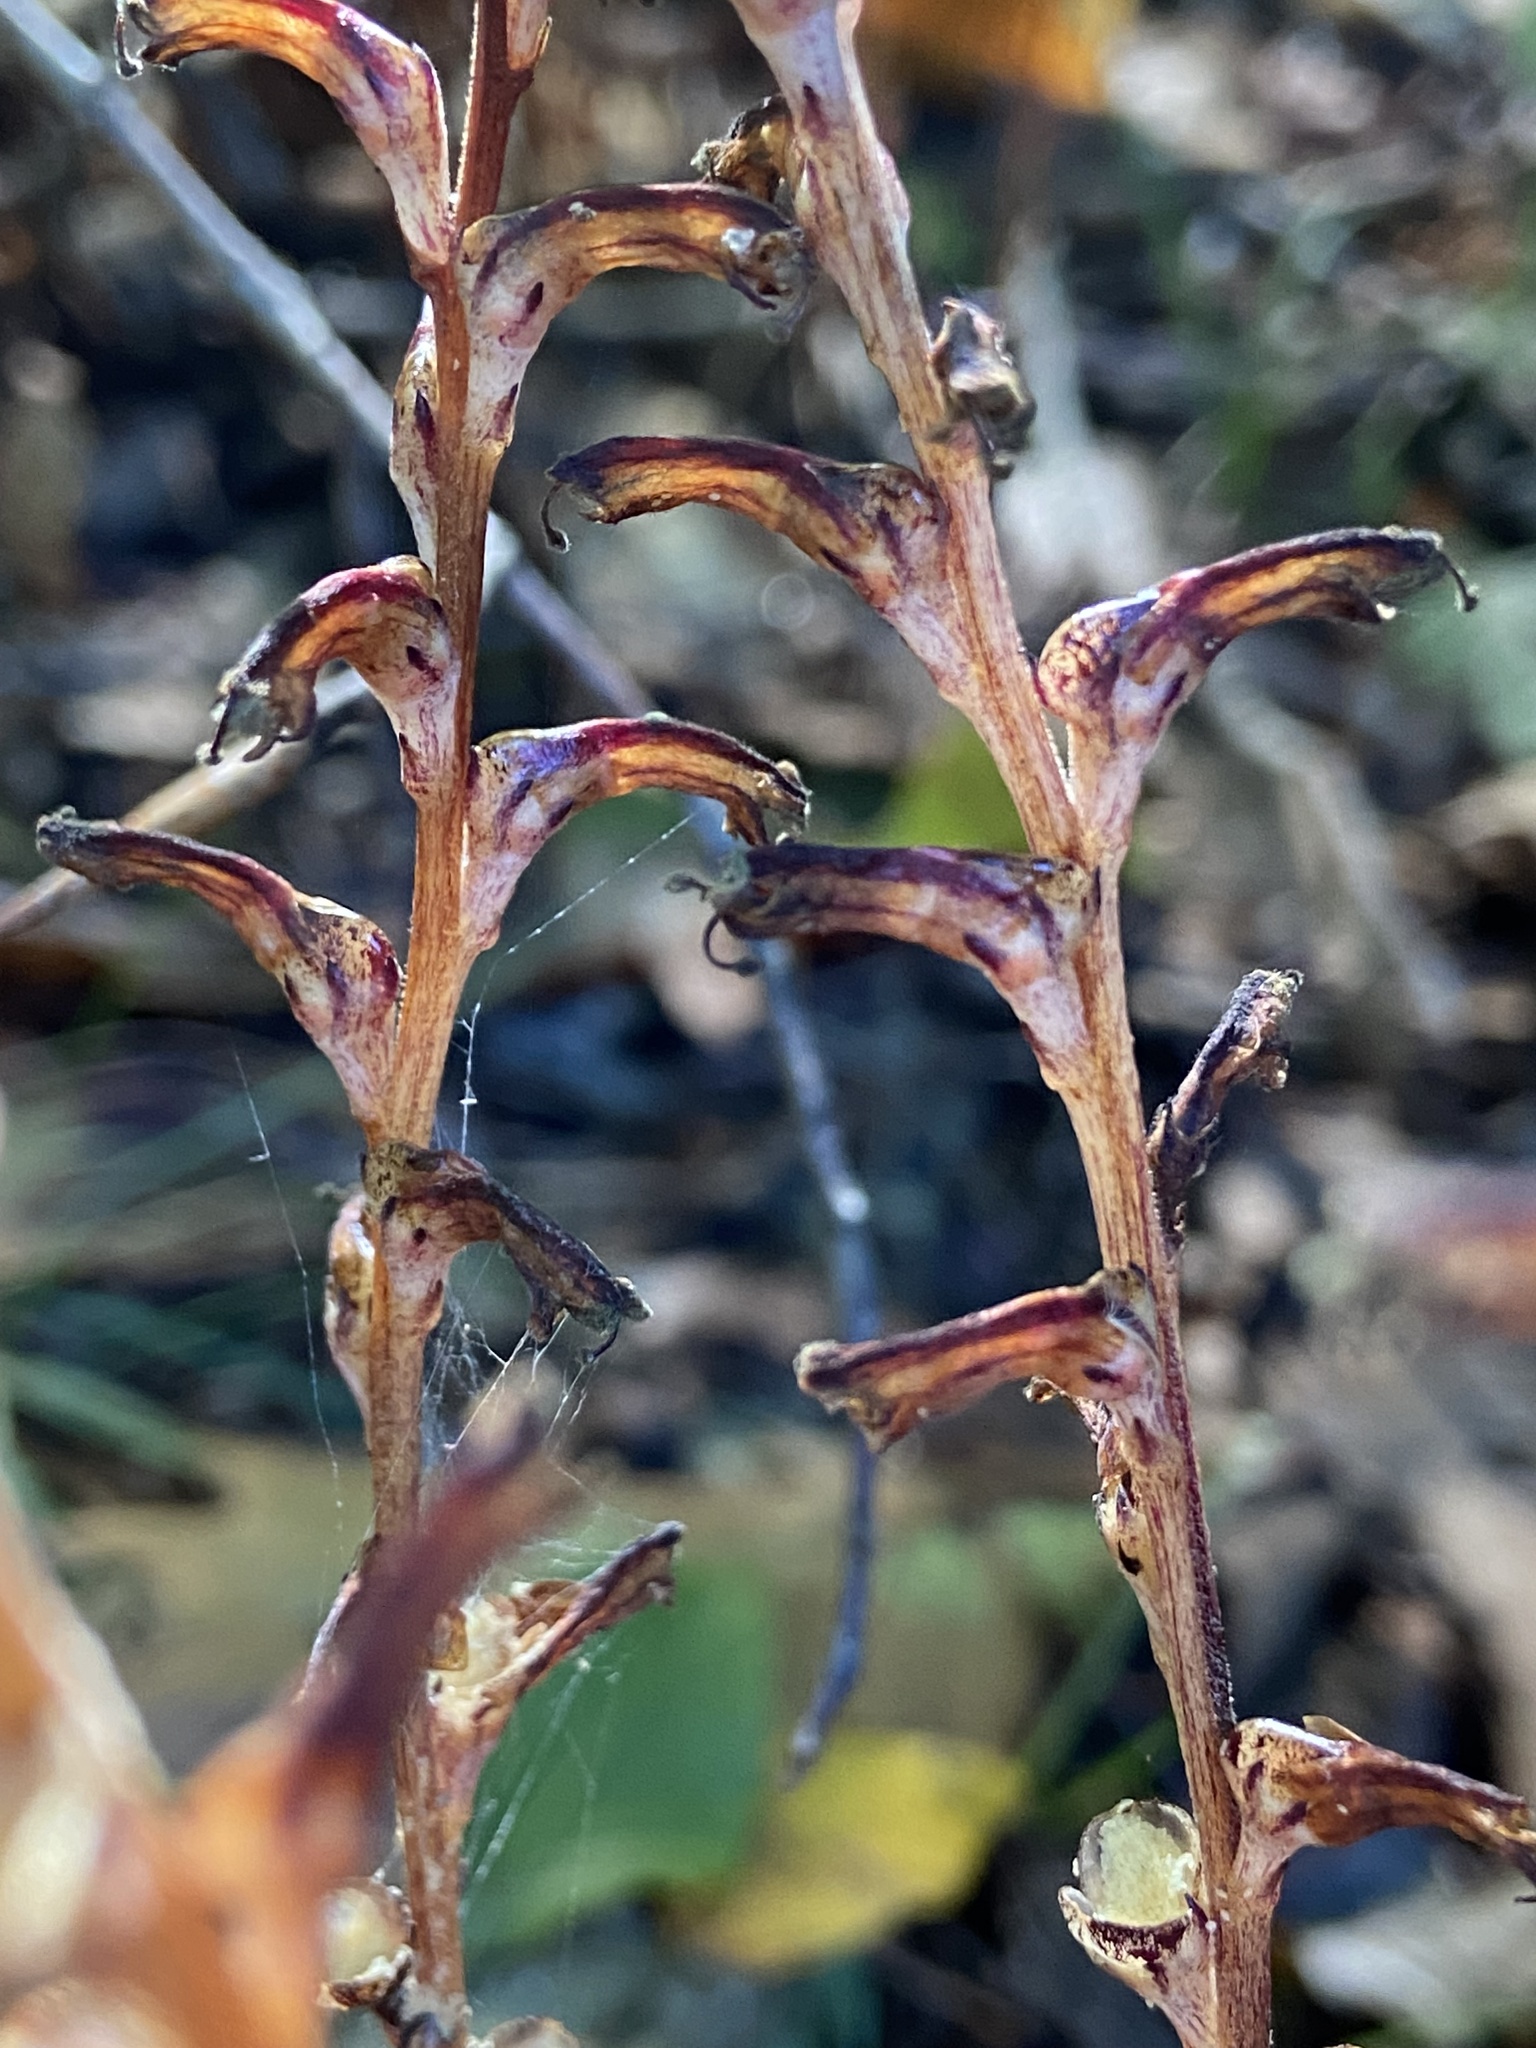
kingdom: Plantae
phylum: Tracheophyta
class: Magnoliopsida
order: Lamiales
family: Orobanchaceae
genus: Epifagus
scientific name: Epifagus virginiana
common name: Beechdrops
